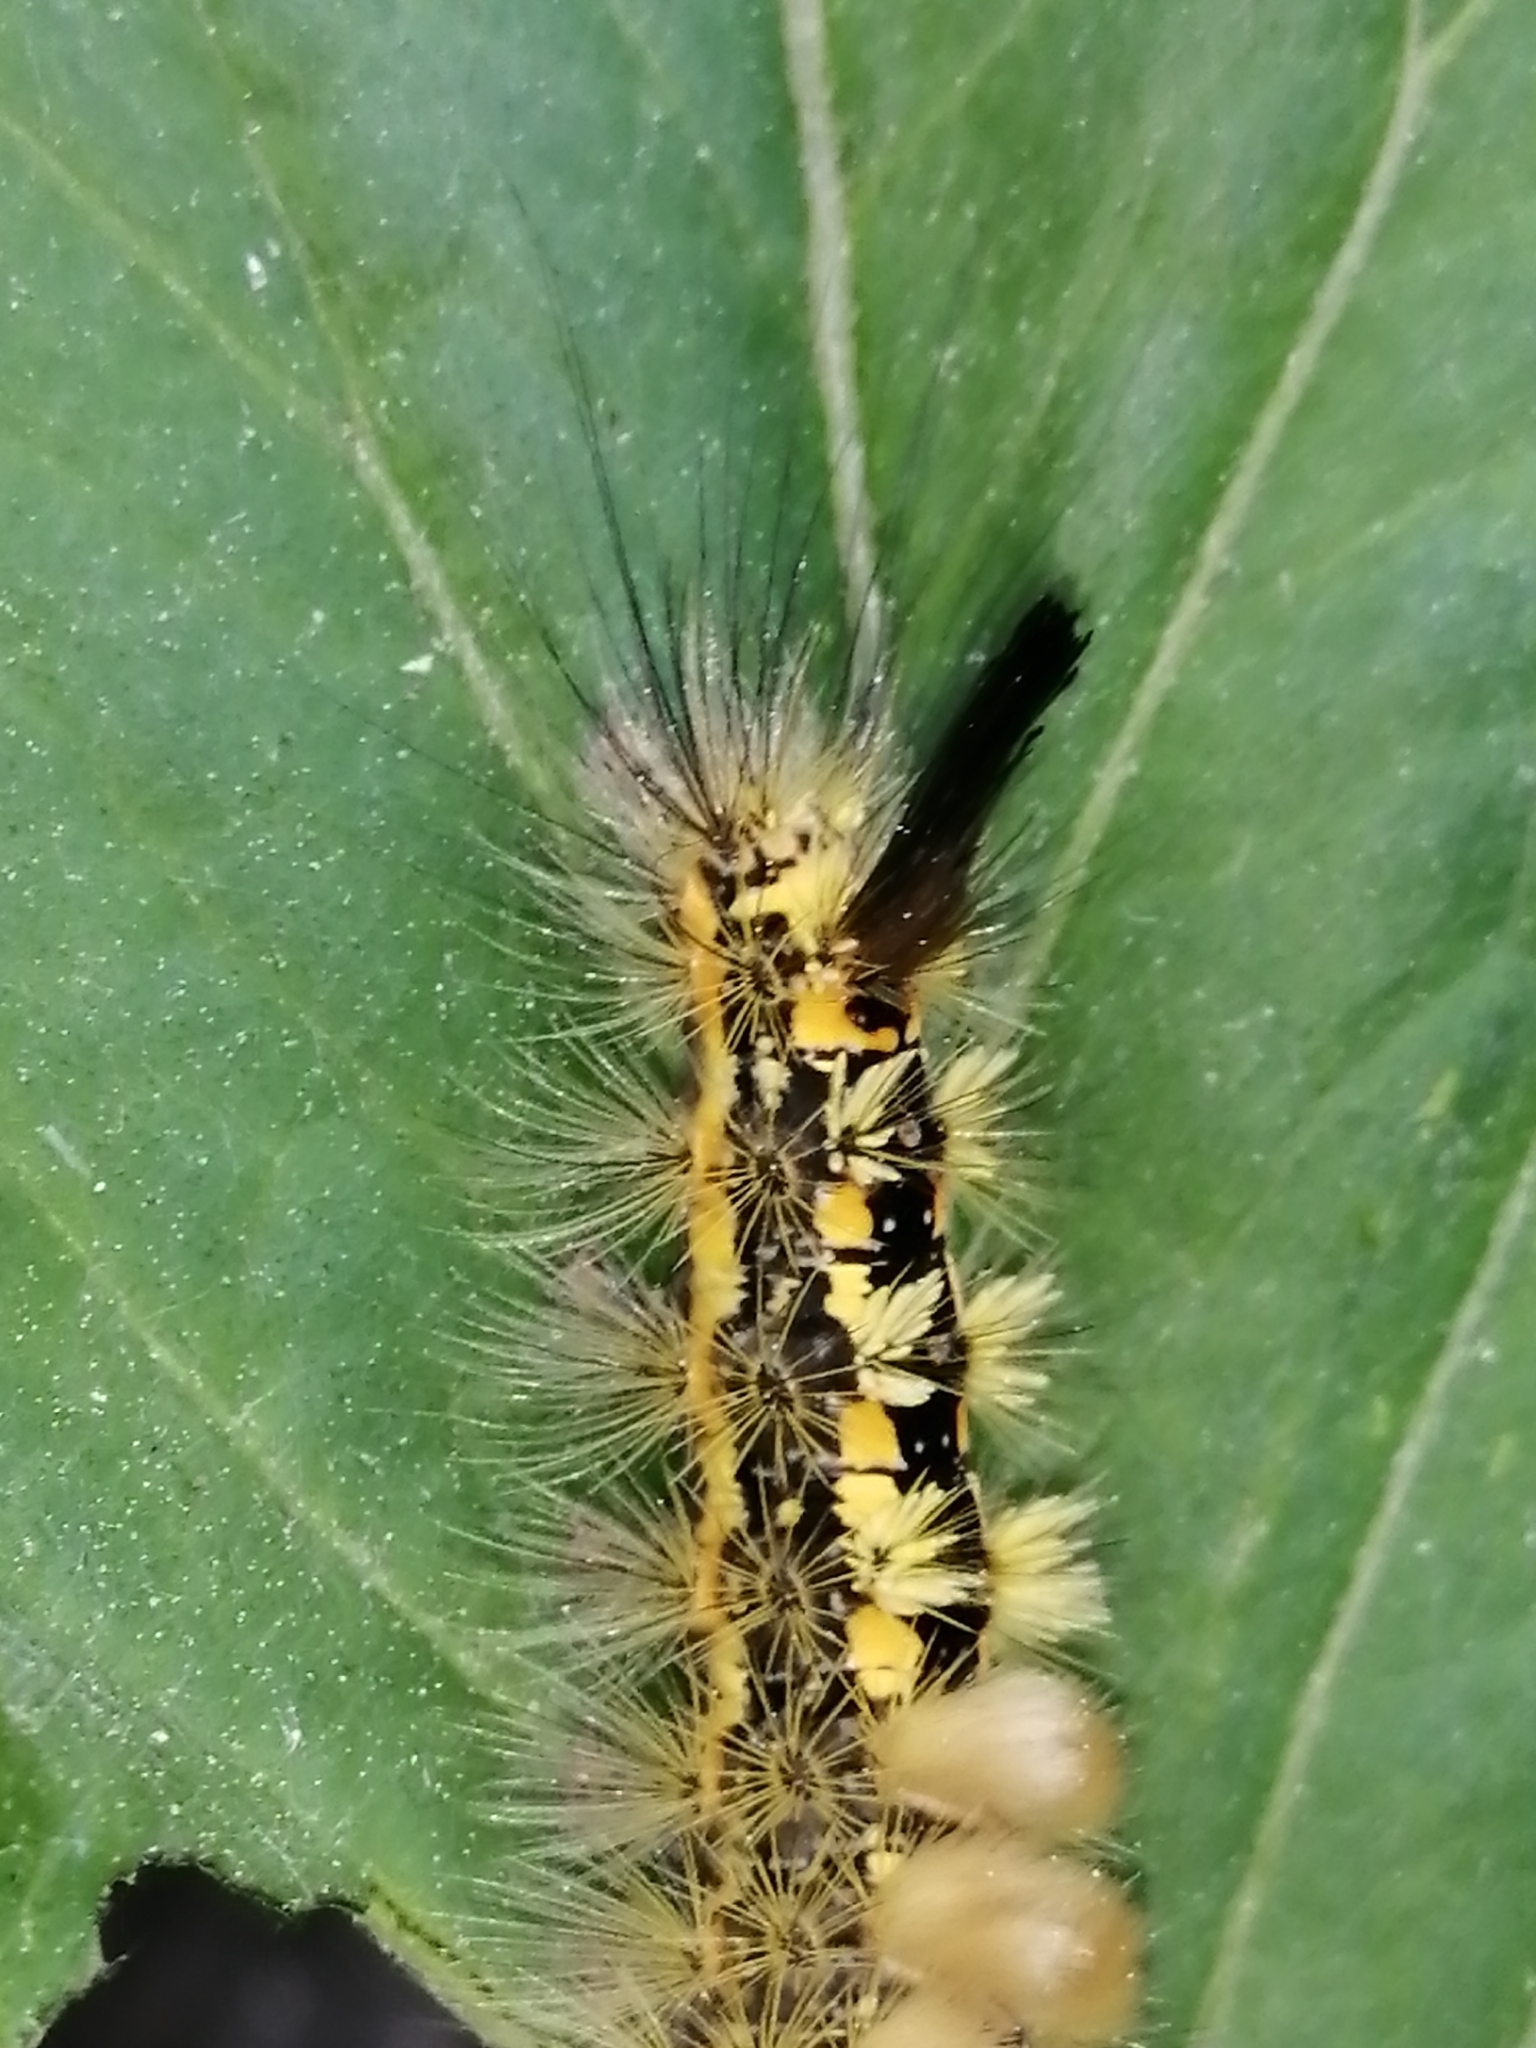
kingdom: Animalia
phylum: Arthropoda
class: Insecta
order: Lepidoptera
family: Erebidae
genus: Orgyia
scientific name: Orgyia recens
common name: Scarce vapourer
